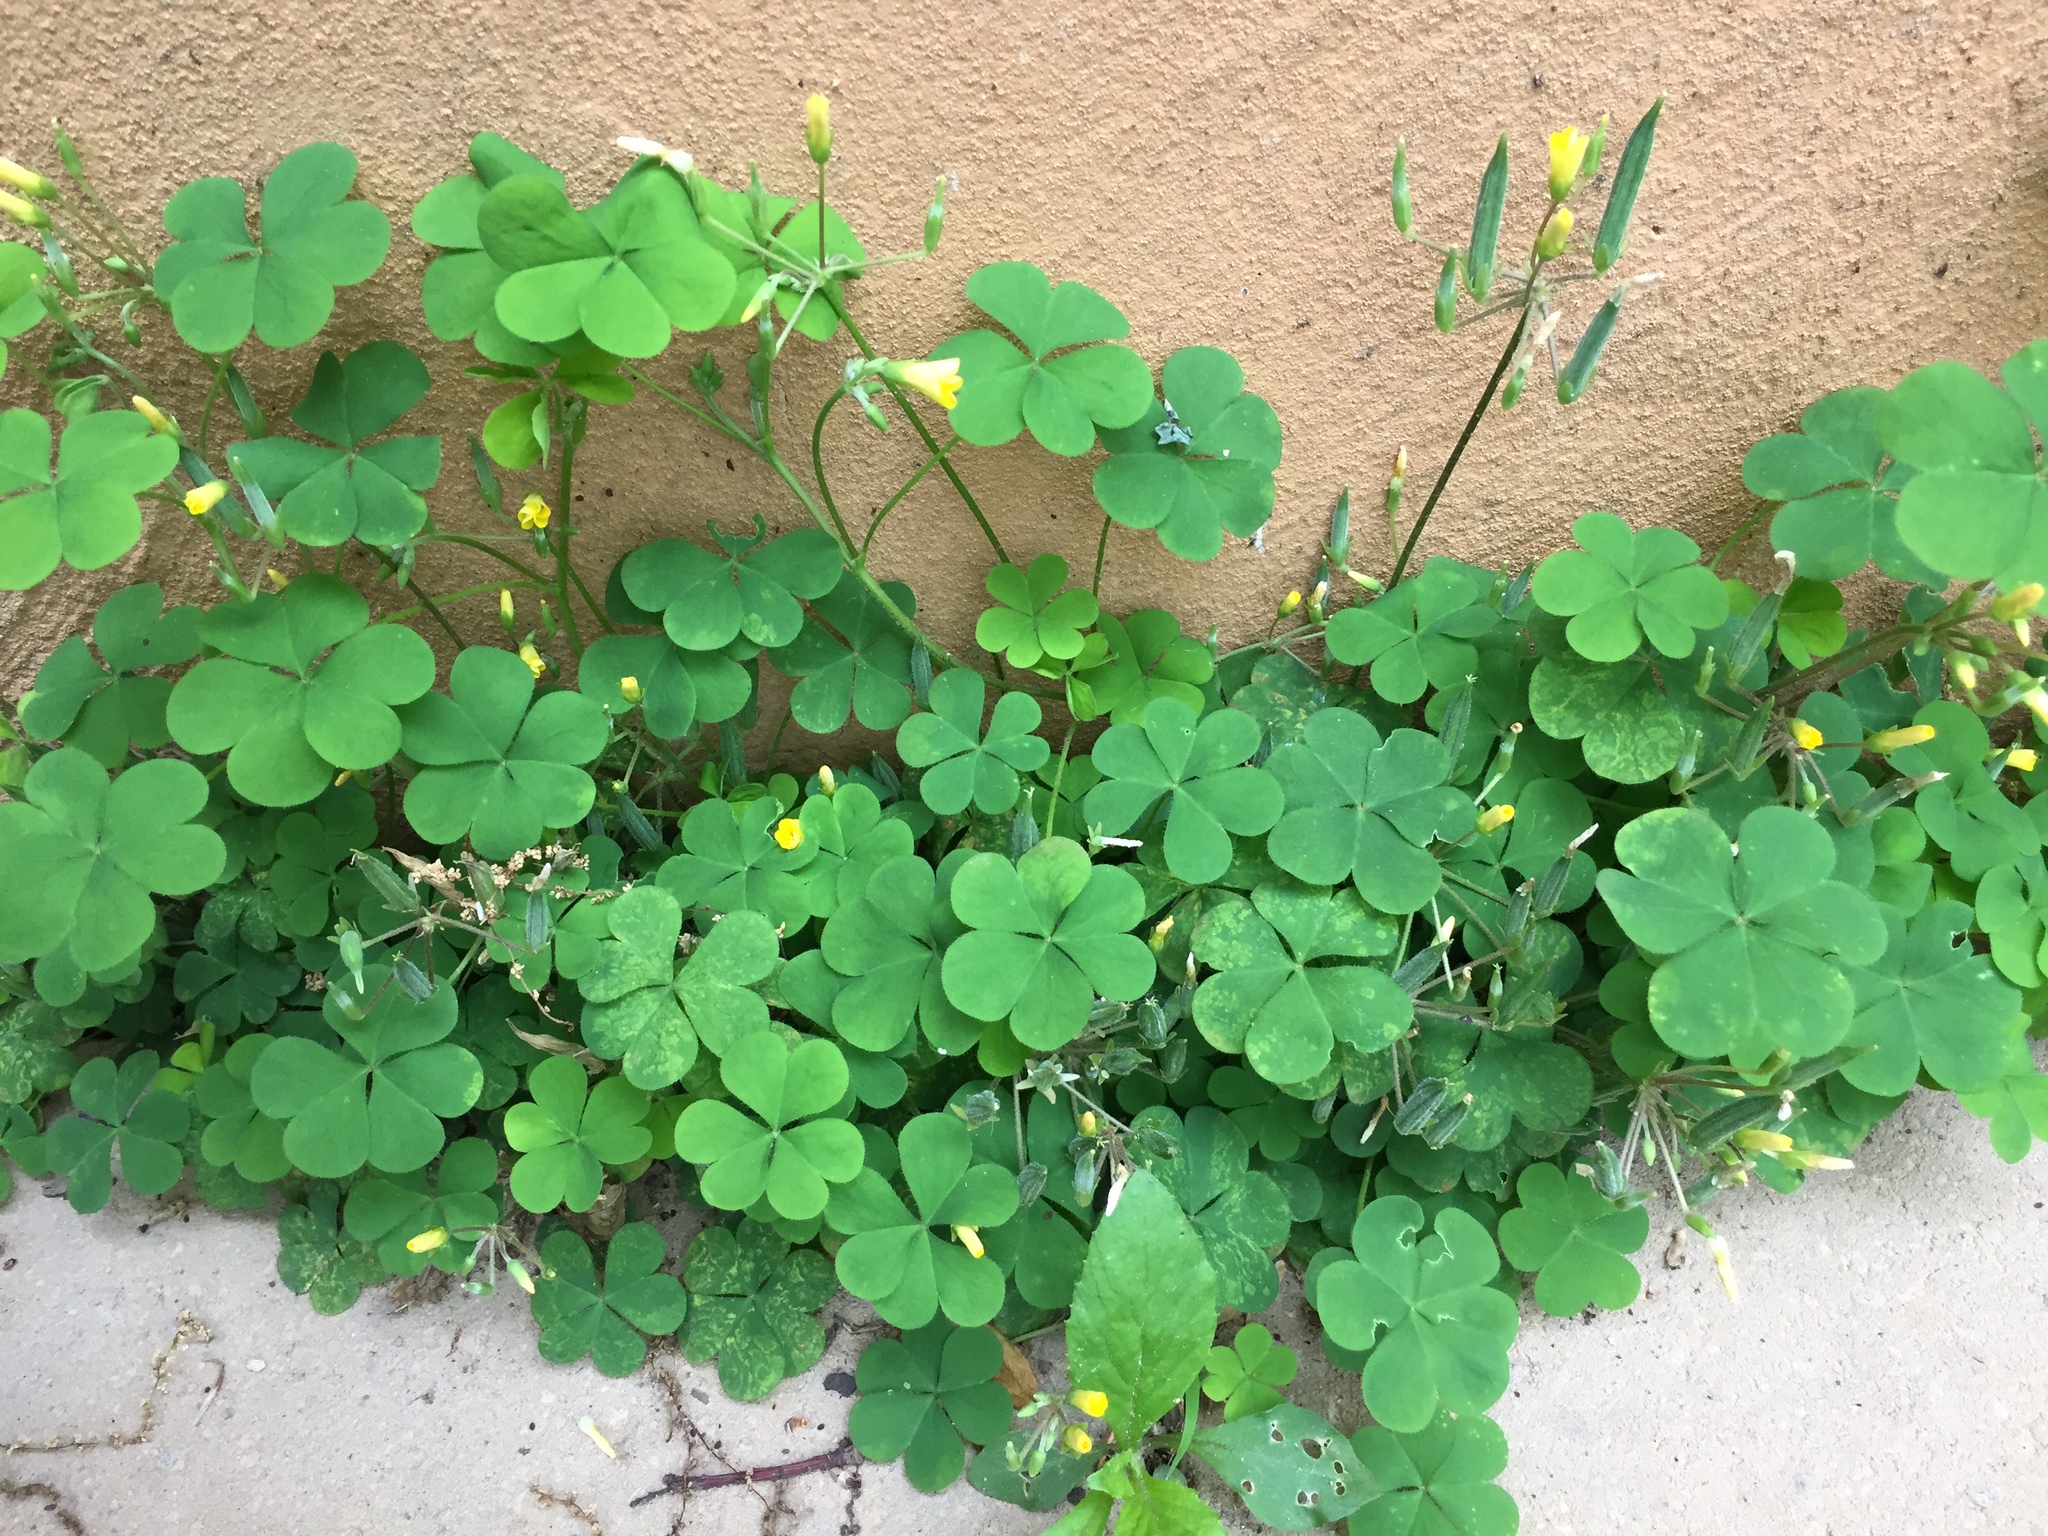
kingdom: Plantae
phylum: Tracheophyta
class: Magnoliopsida
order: Oxalidales
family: Oxalidaceae
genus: Oxalis
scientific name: Oxalis stricta
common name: Upright yellow-sorrel
